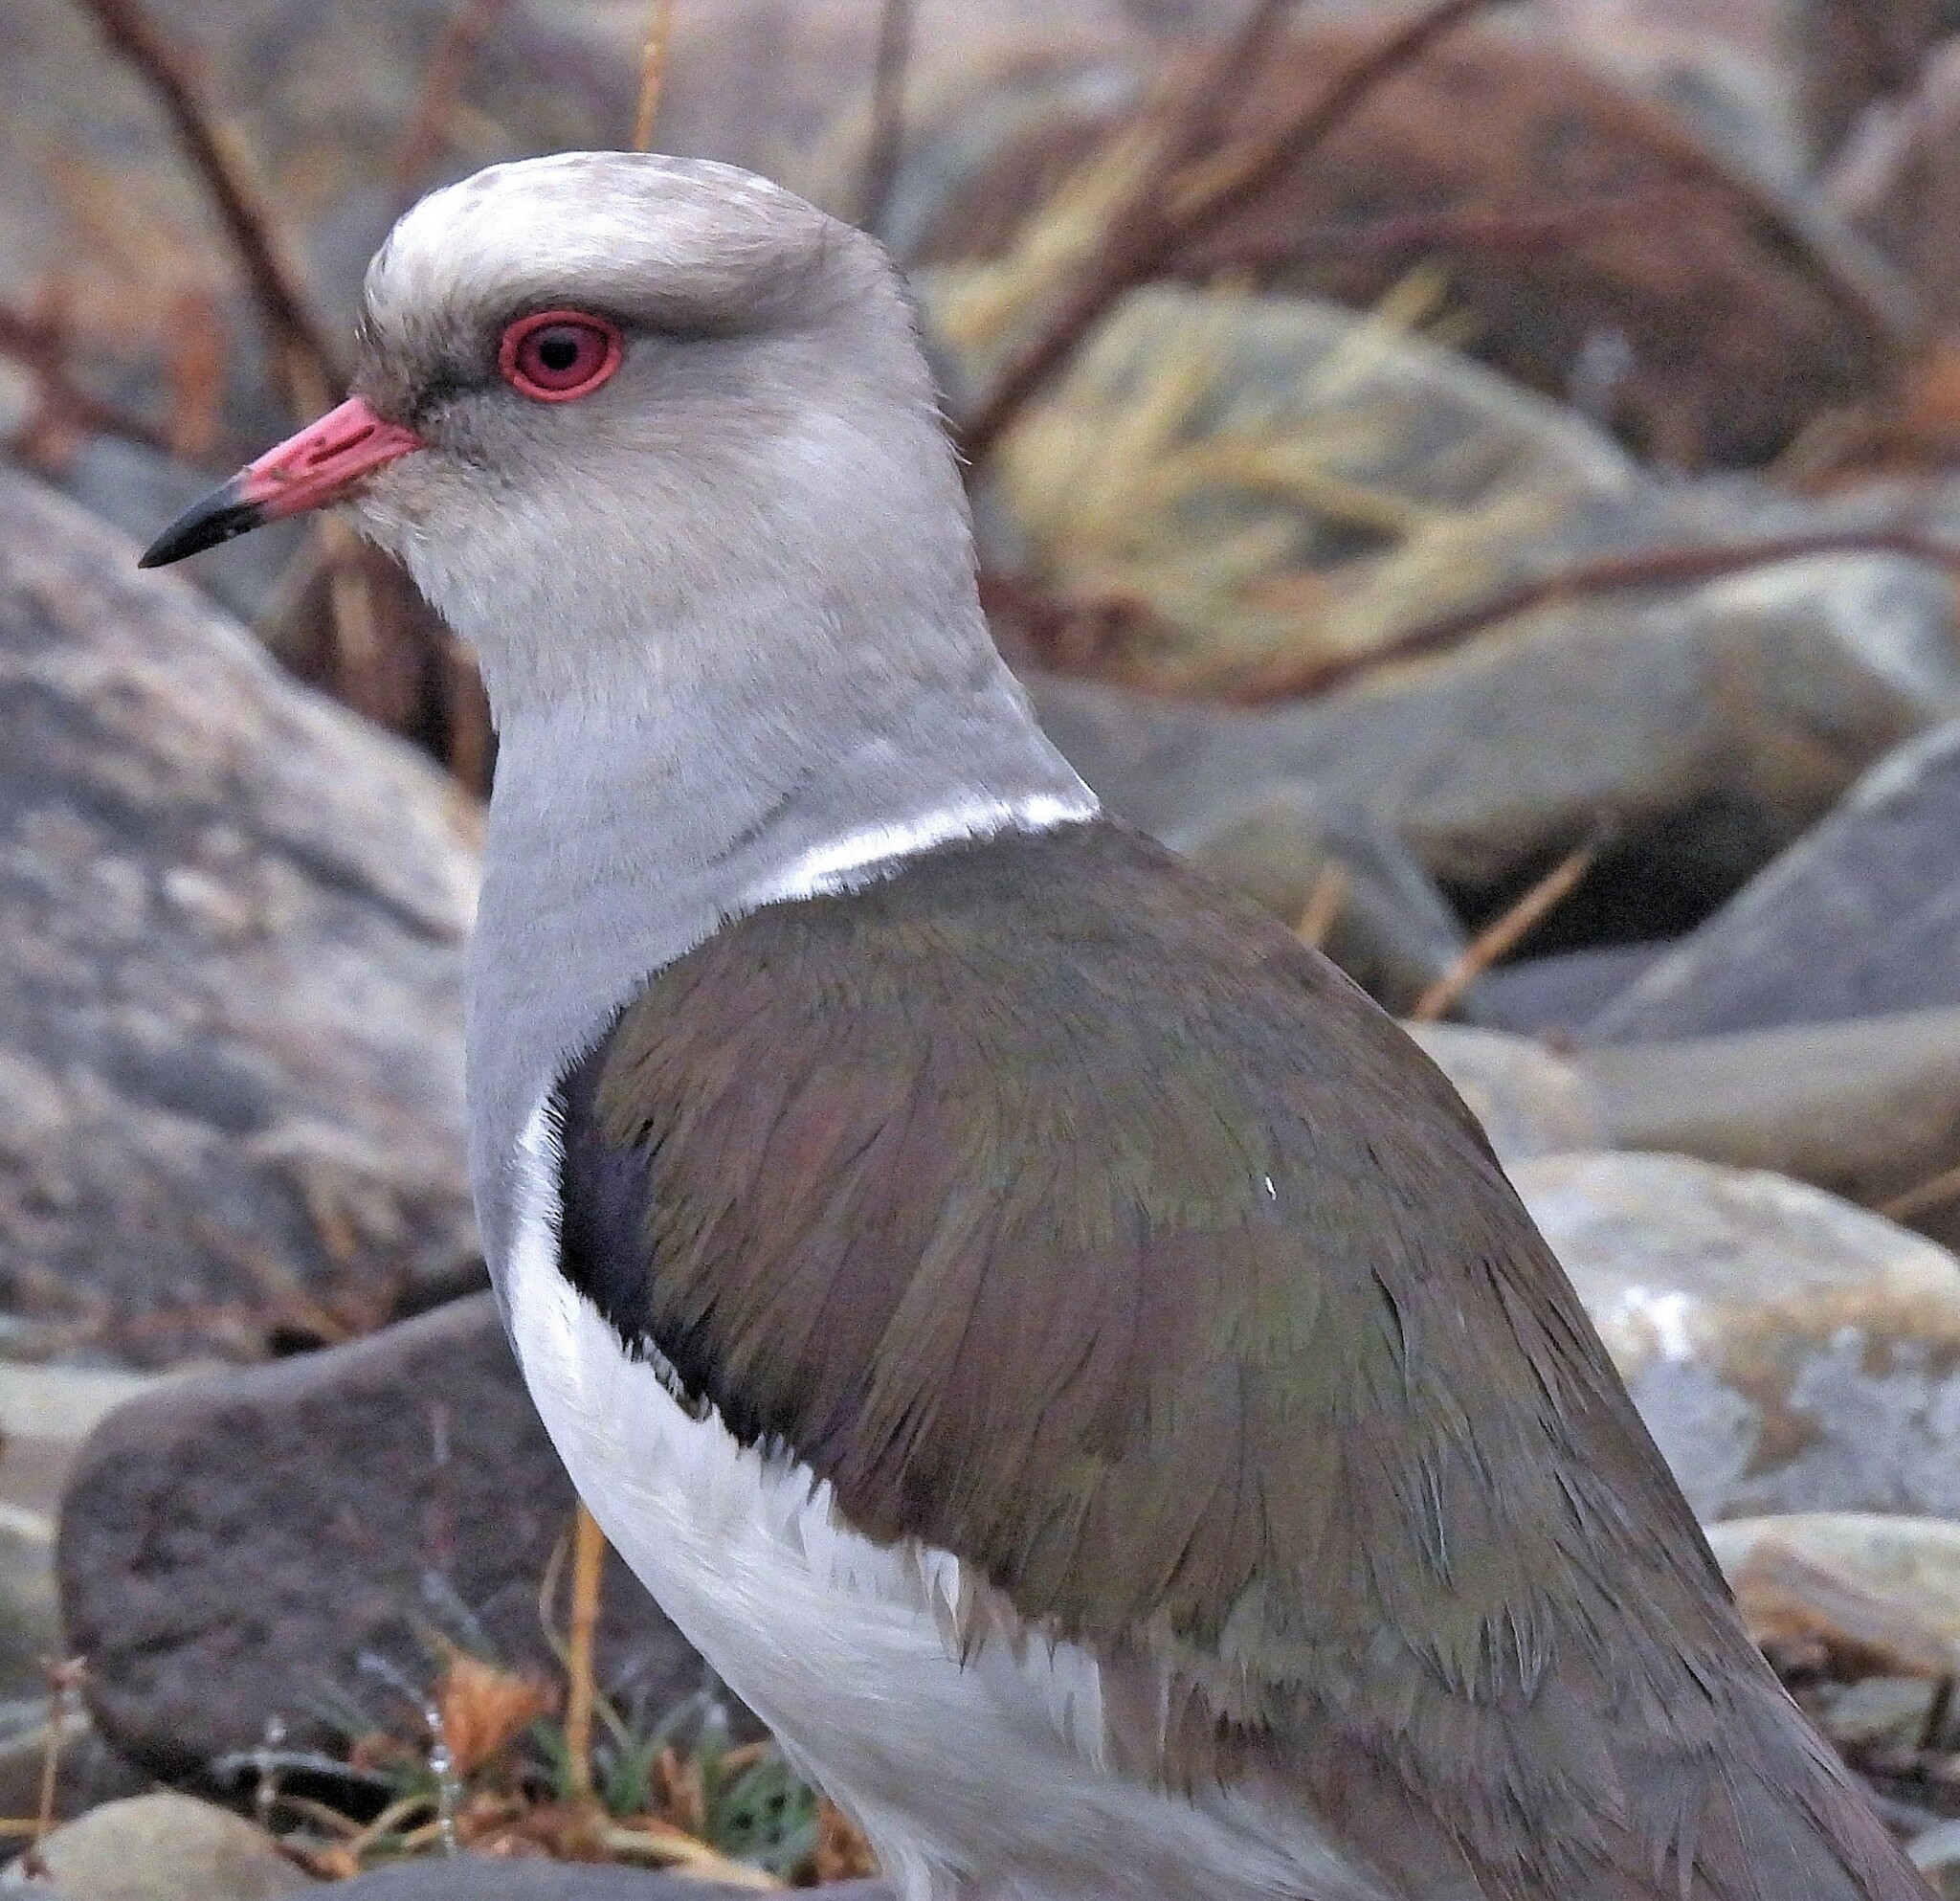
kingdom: Animalia
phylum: Chordata
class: Aves
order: Charadriiformes
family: Charadriidae
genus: Vanellus
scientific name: Vanellus resplendens
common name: Andean lapwing
